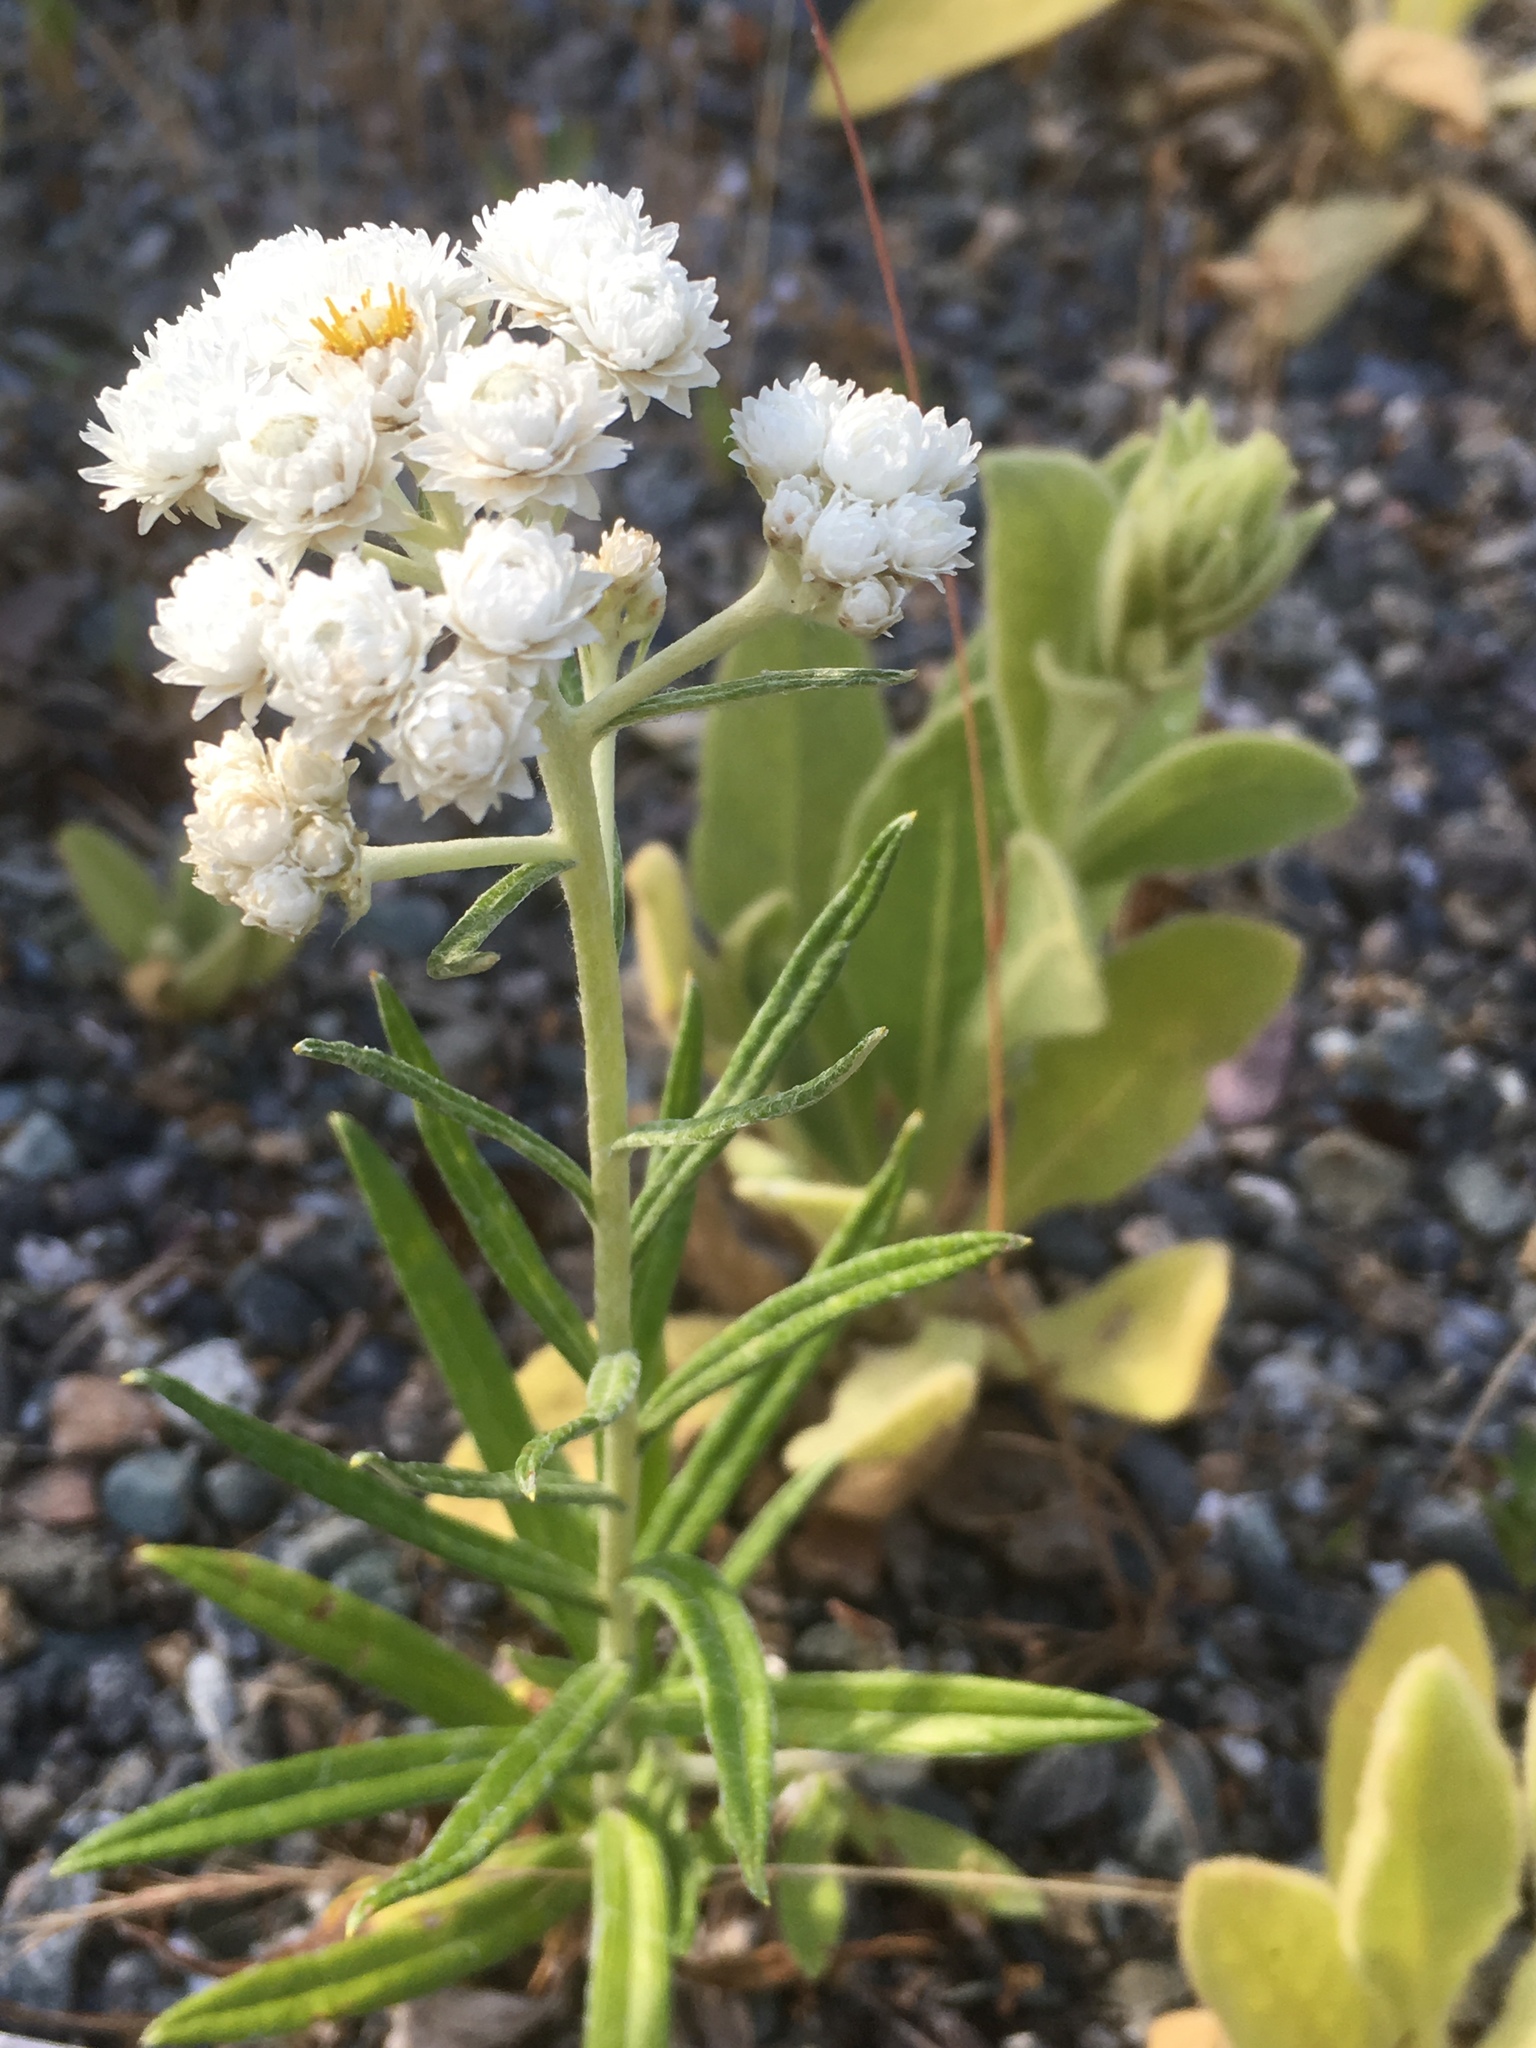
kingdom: Plantae
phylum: Tracheophyta
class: Magnoliopsida
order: Asterales
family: Asteraceae
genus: Anaphalis
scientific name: Anaphalis margaritacea
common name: Pearly everlasting
